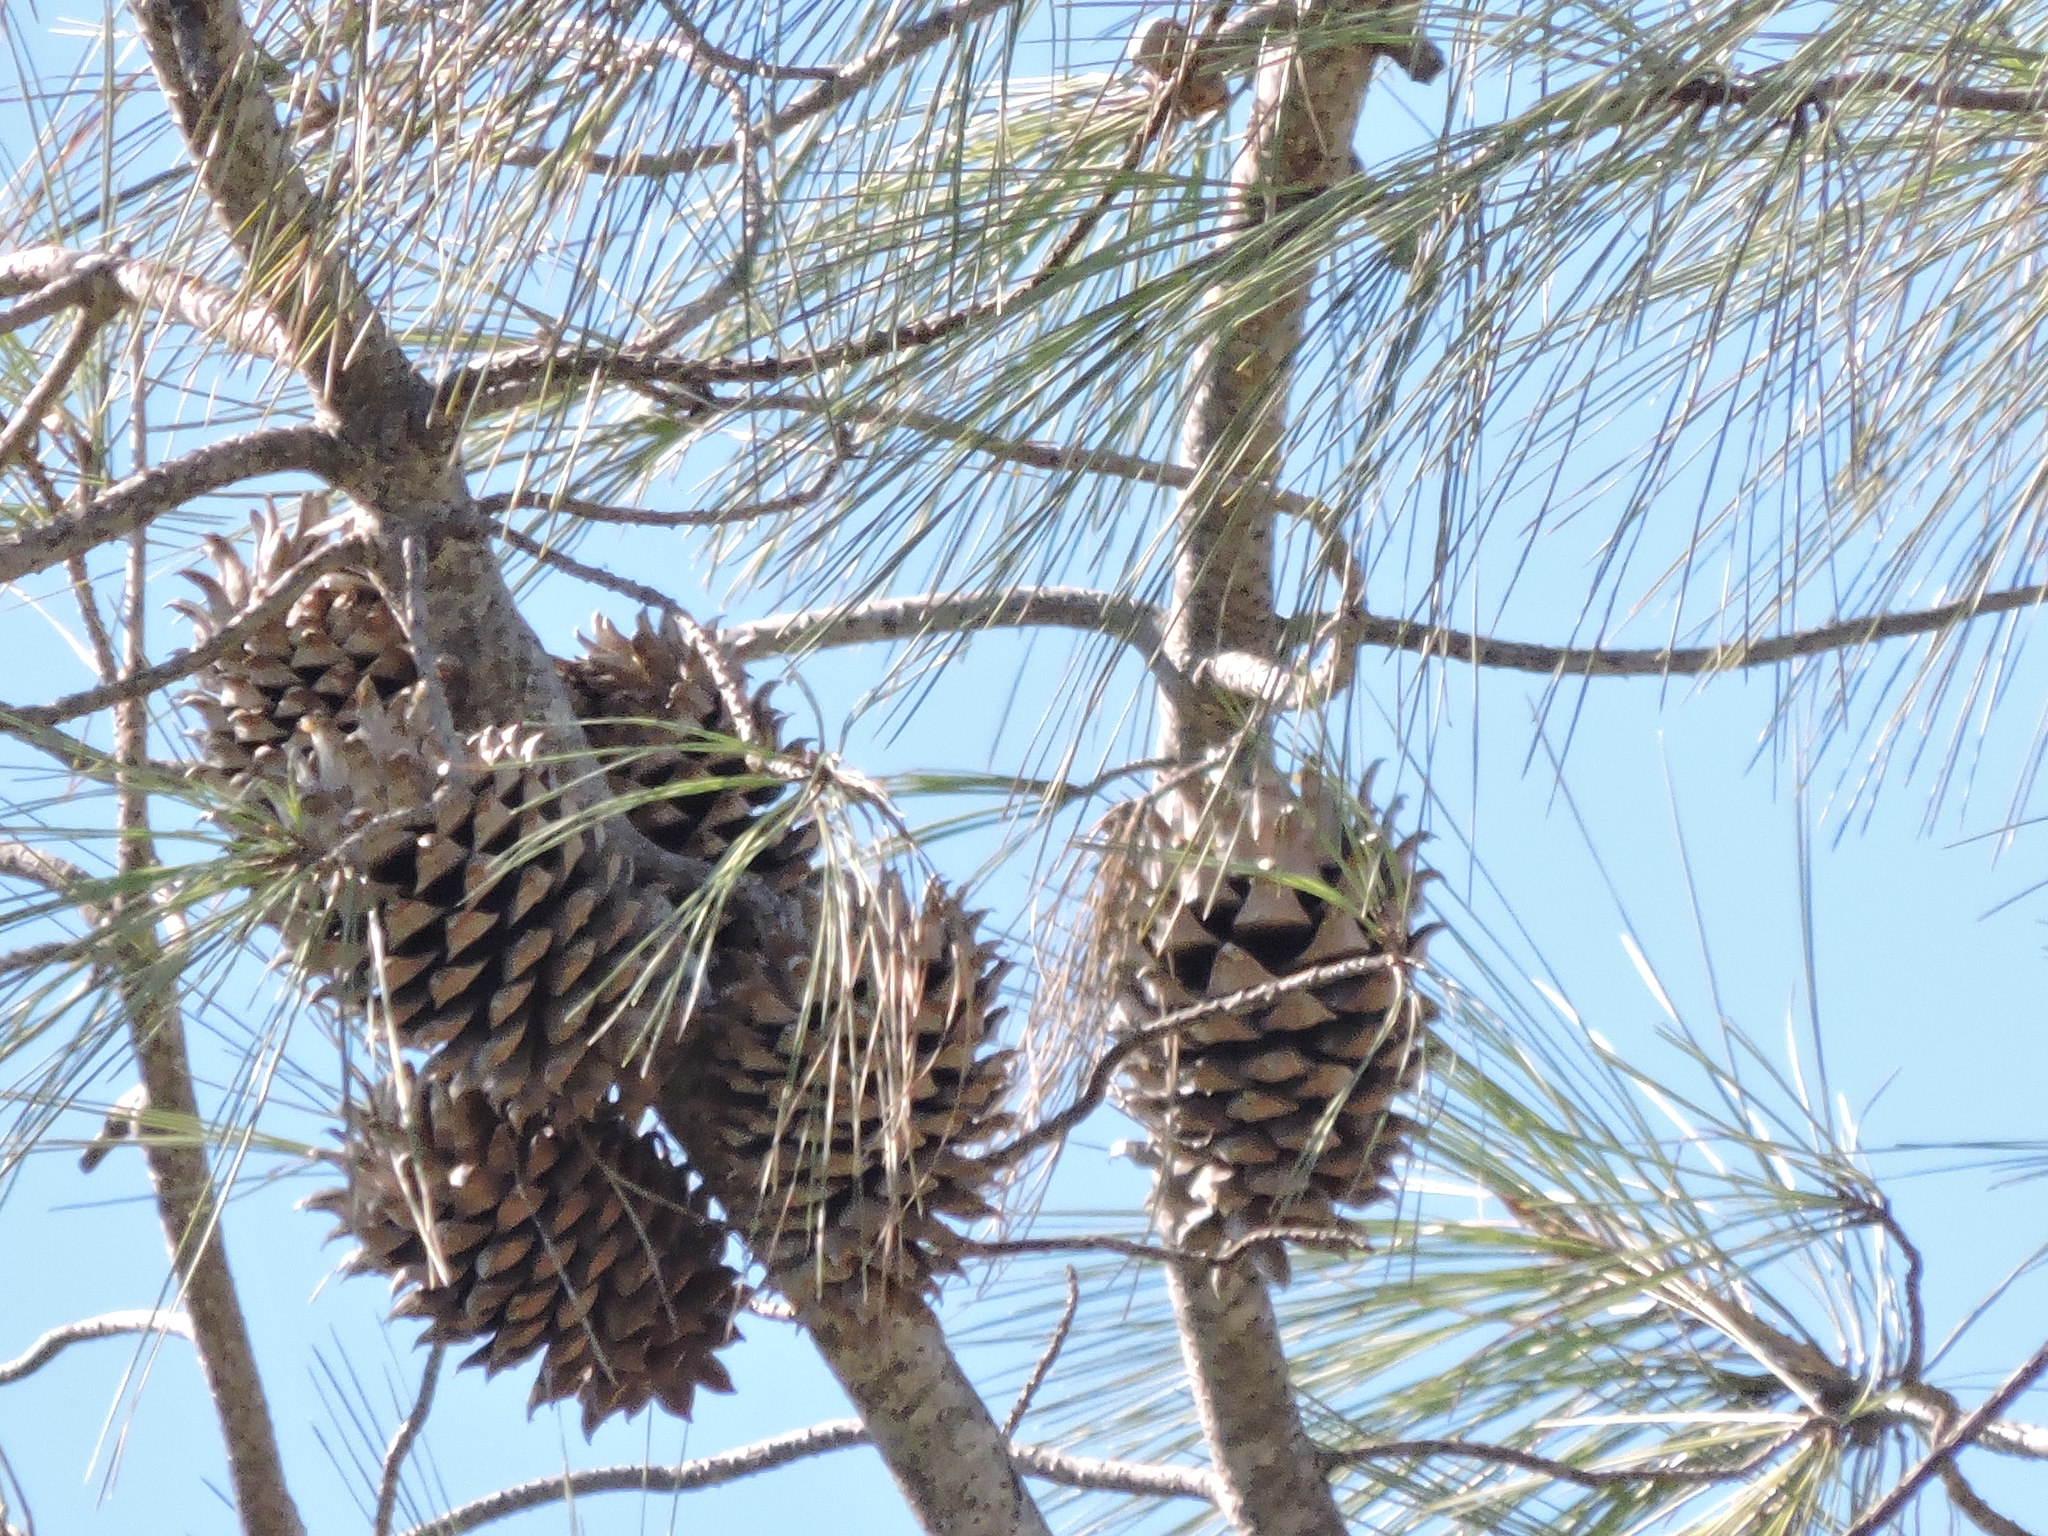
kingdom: Plantae
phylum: Tracheophyta
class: Pinopsida
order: Pinales
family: Pinaceae
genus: Pinus
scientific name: Pinus sabiniana
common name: Bull pine
